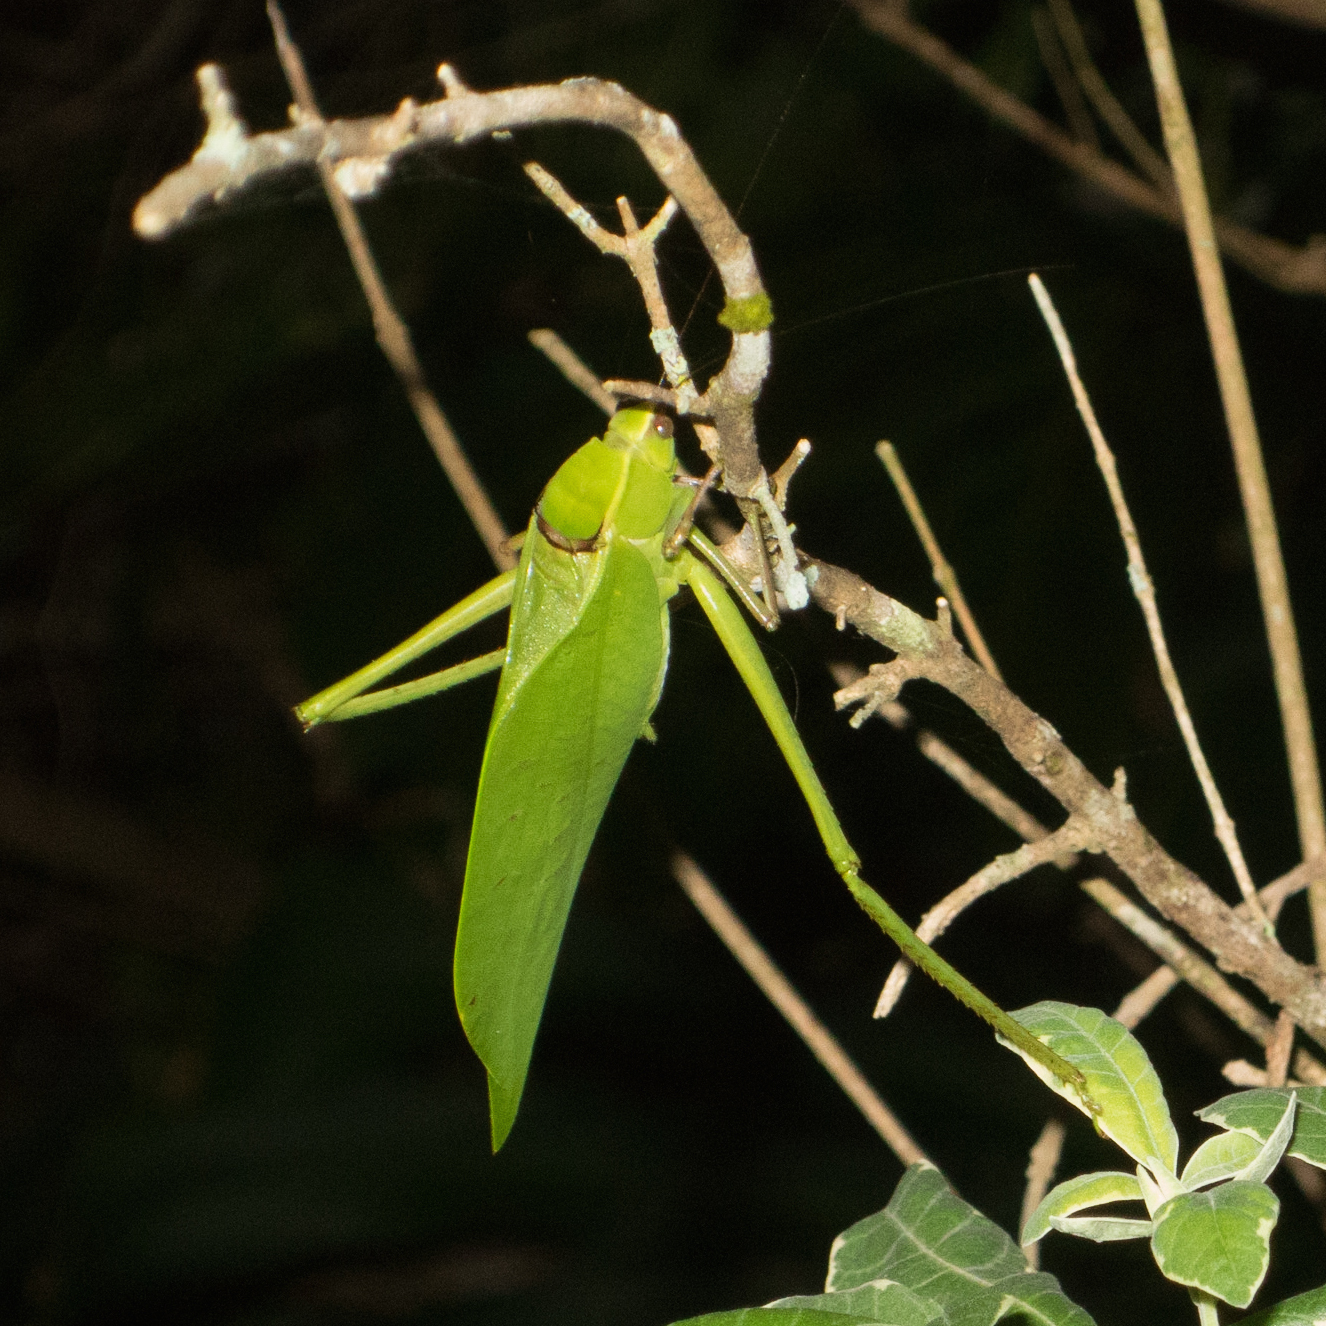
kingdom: Animalia
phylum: Arthropoda
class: Insecta
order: Orthoptera
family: Tettigoniidae
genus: Stilpnochlora
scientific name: Stilpnochlora couloniana
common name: Giant katydid
